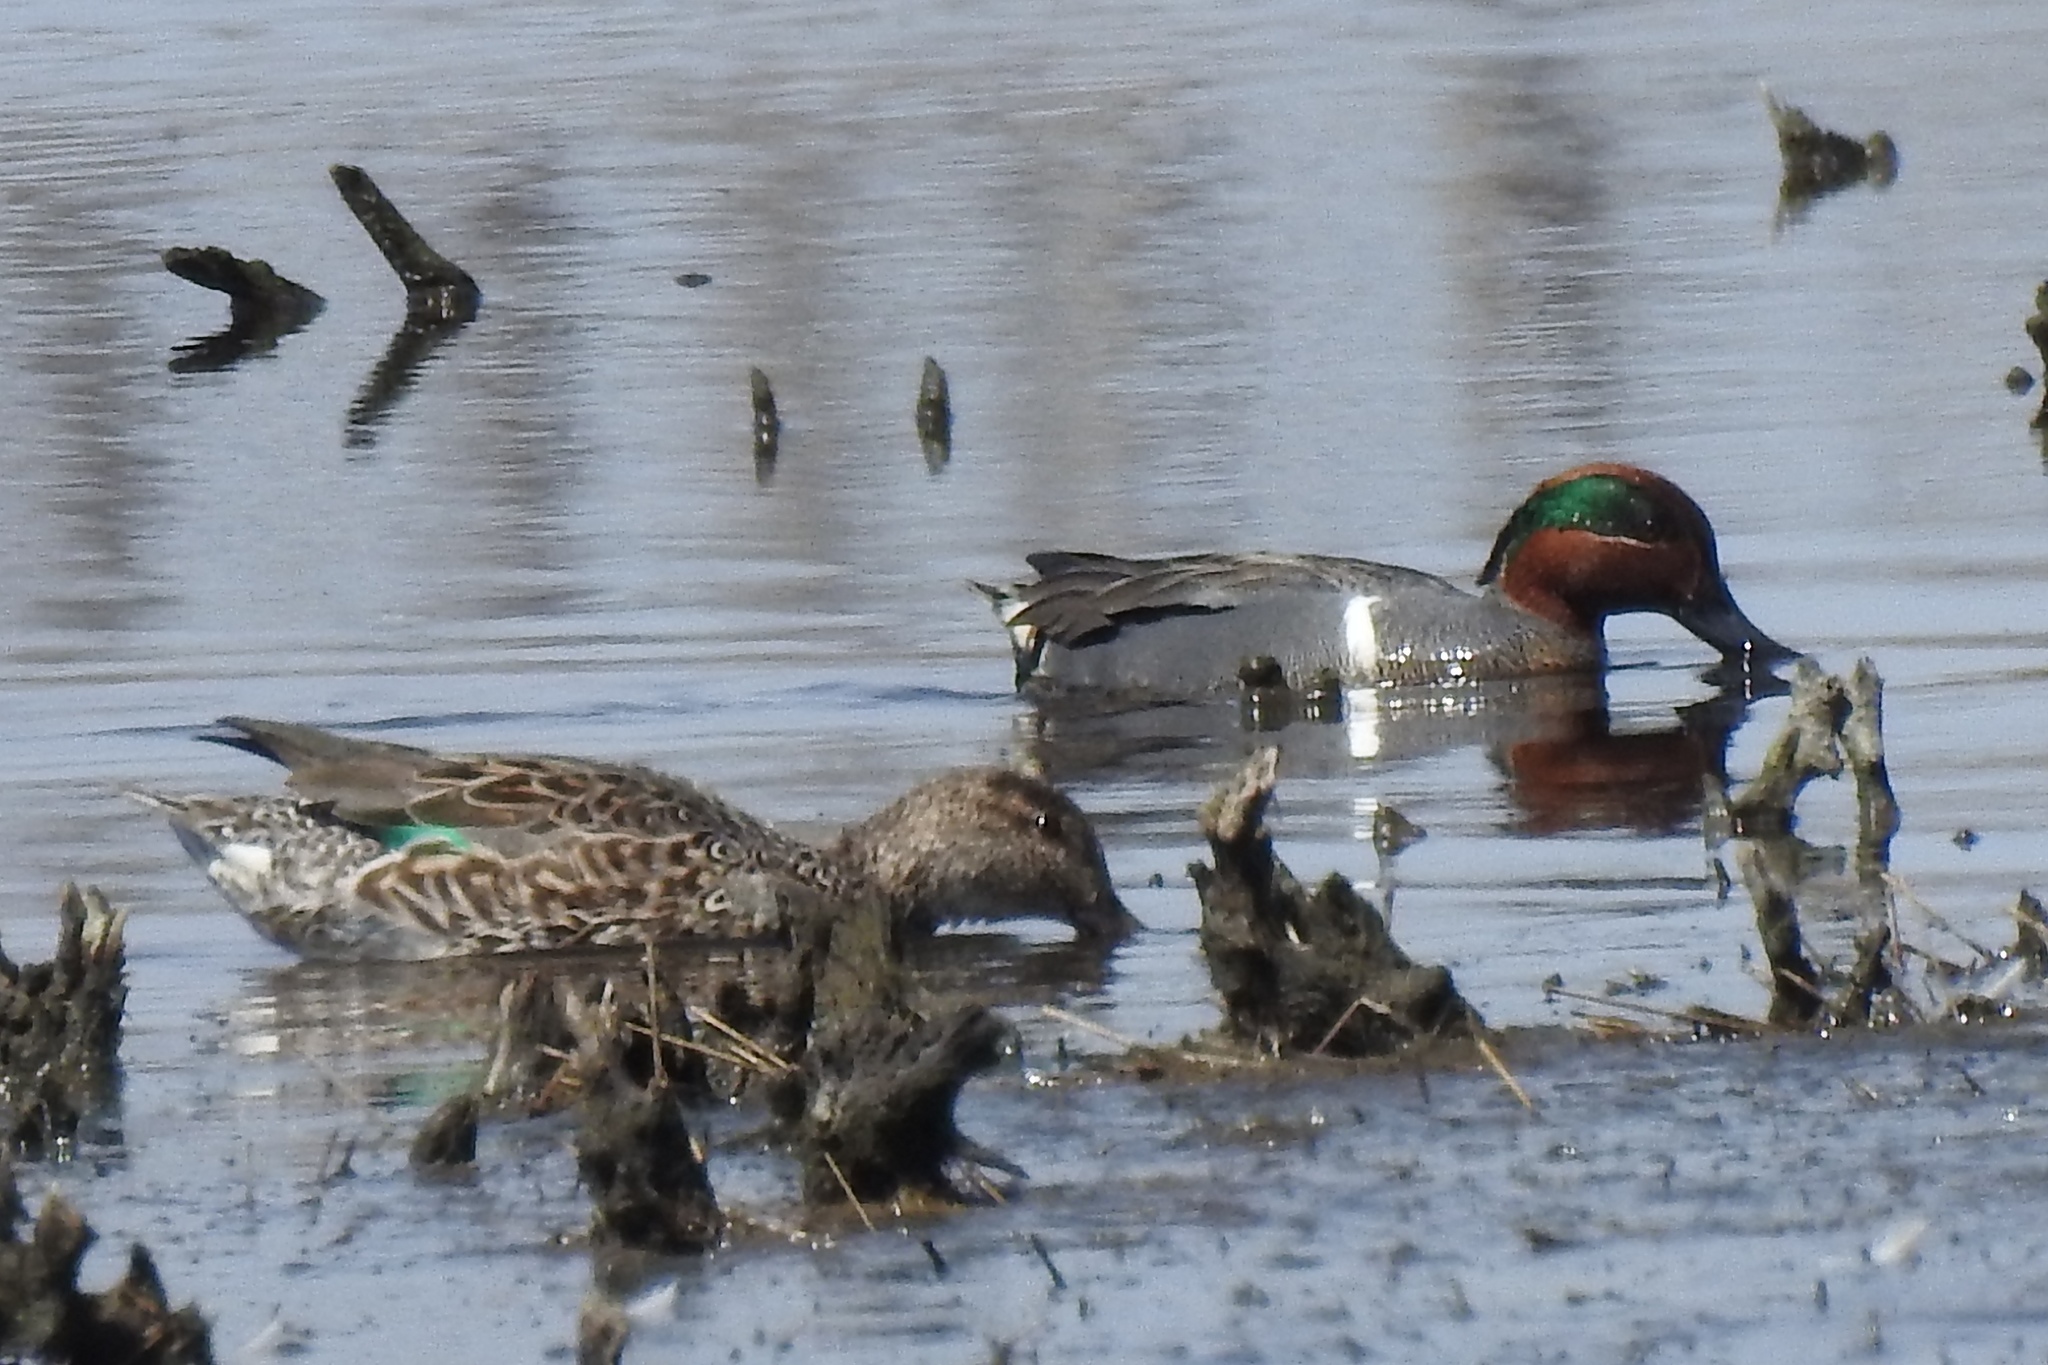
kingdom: Animalia
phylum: Chordata
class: Aves
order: Anseriformes
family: Anatidae
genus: Anas
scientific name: Anas crecca
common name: Eurasian teal
